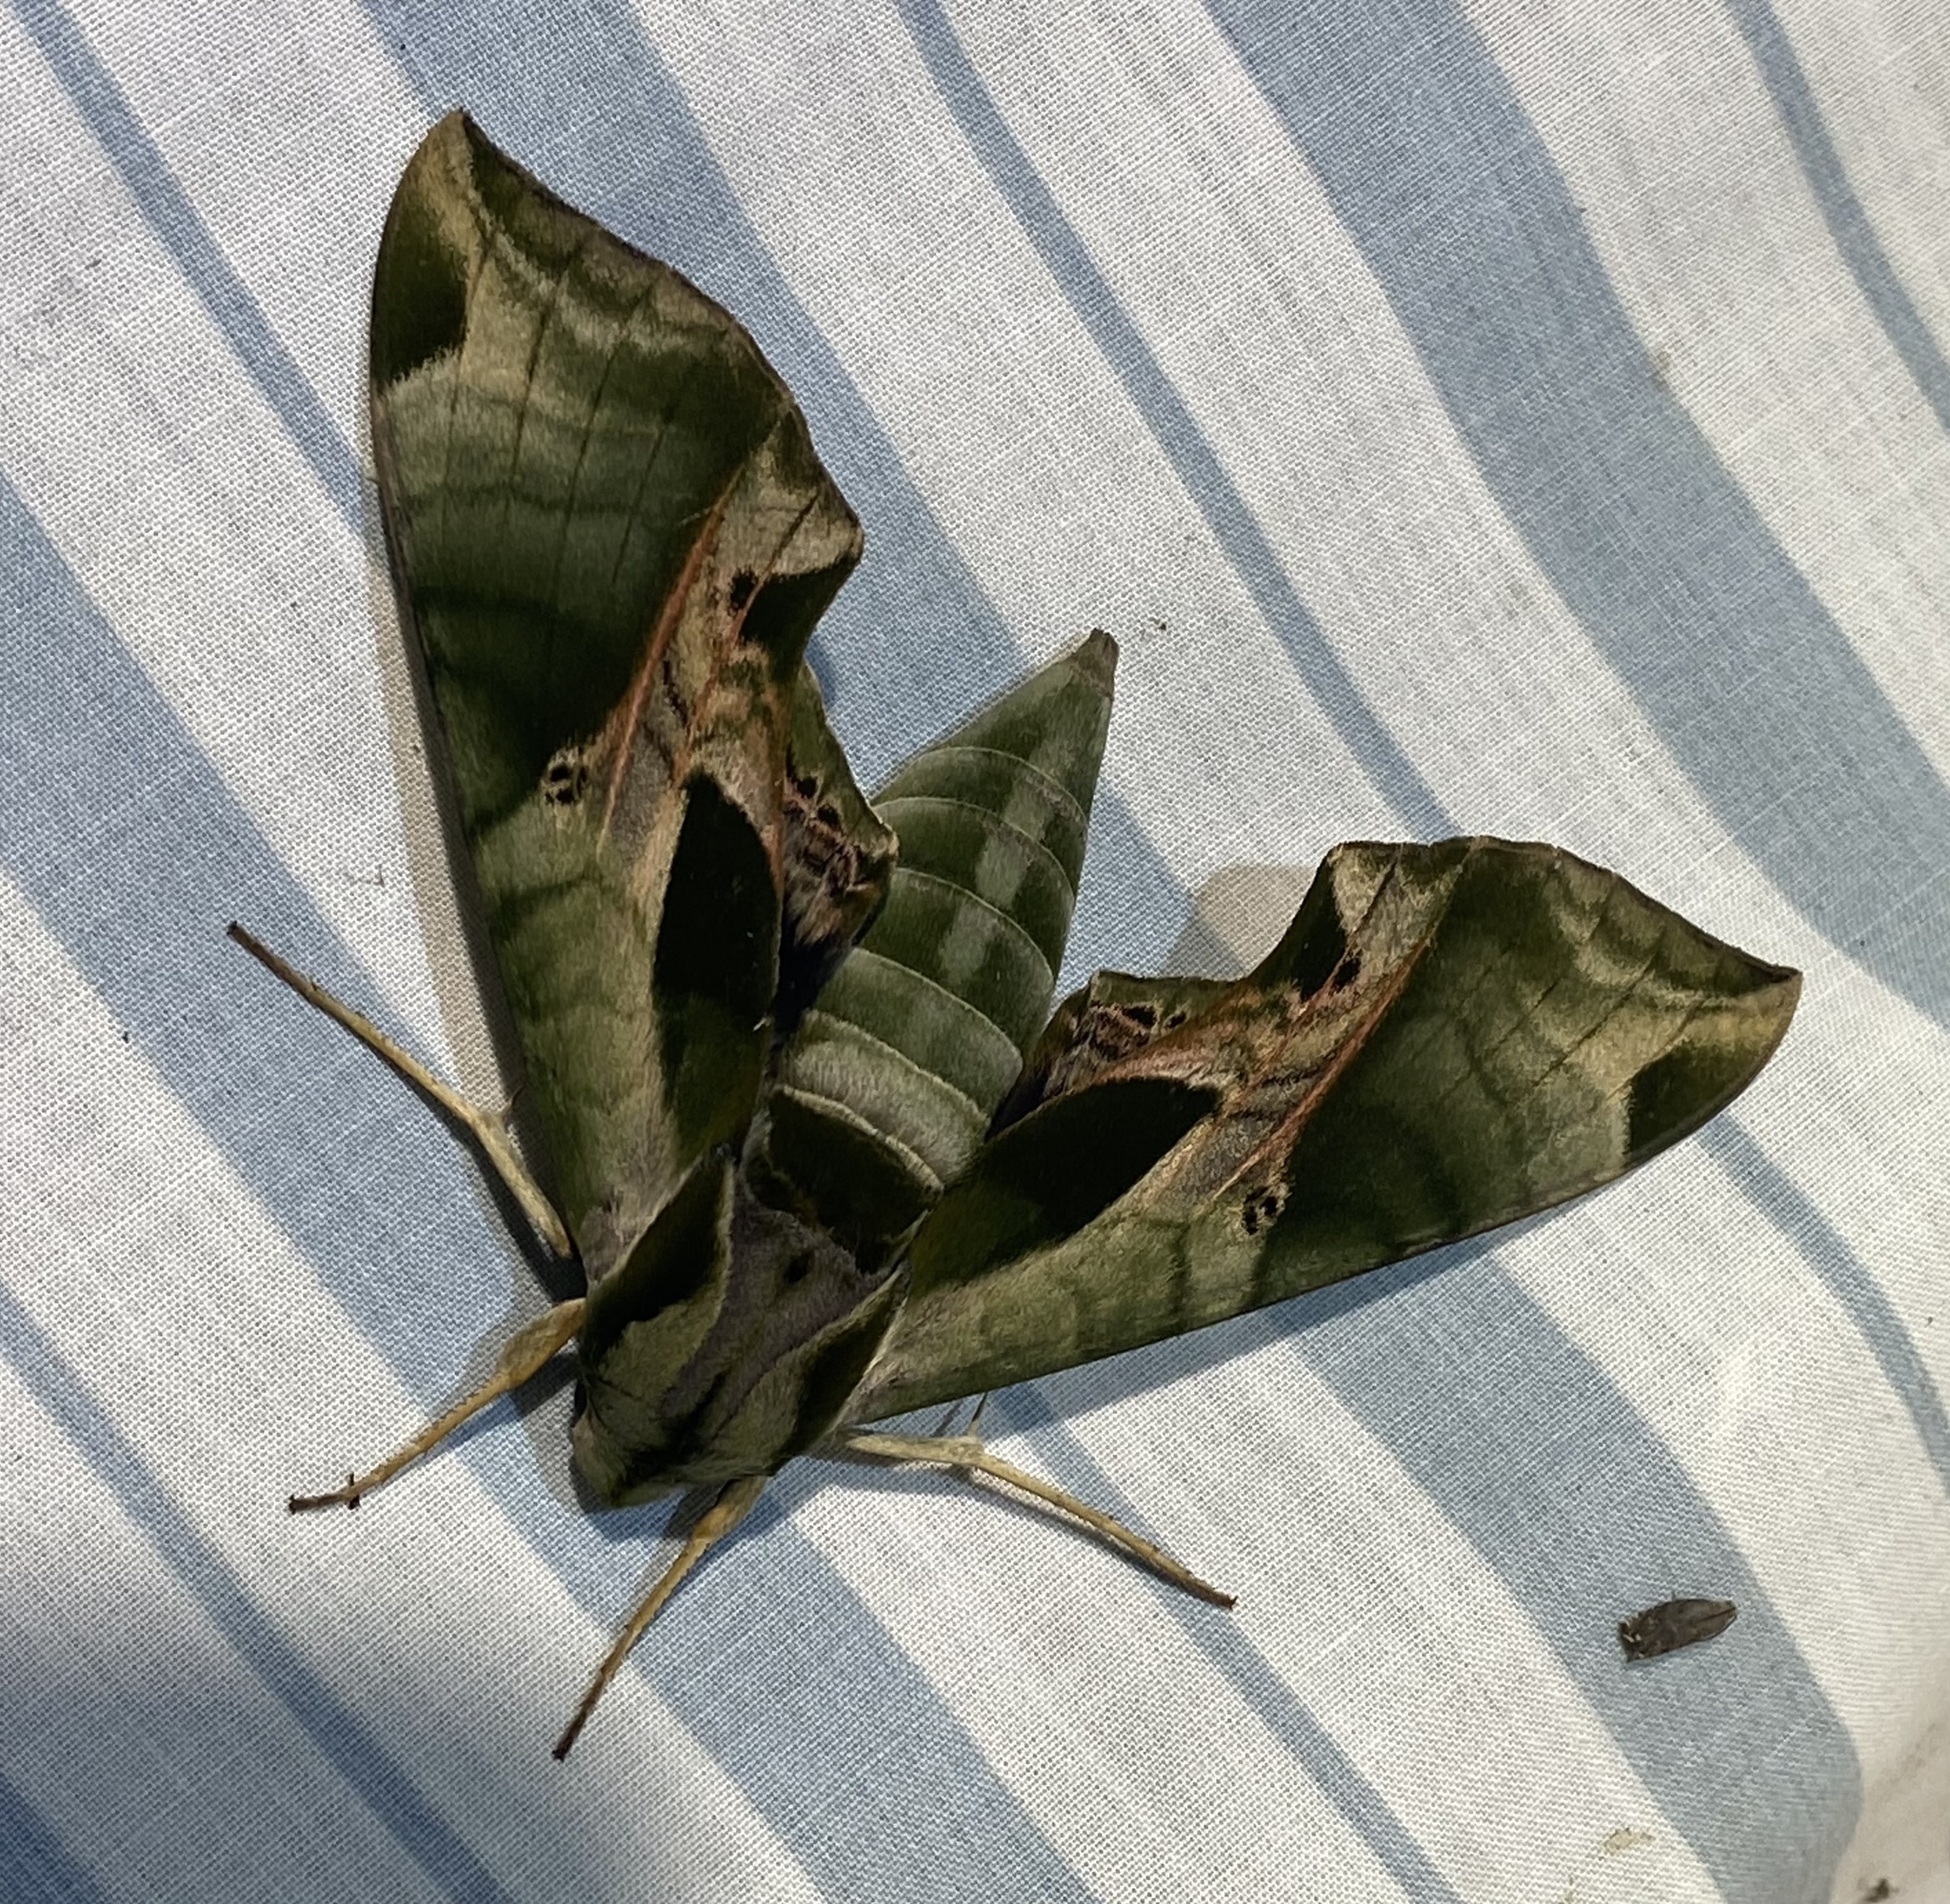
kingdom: Animalia
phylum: Arthropoda
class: Insecta
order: Lepidoptera
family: Sphingidae
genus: Eumorpha
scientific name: Eumorpha pandorus
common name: Pandora sphinx
